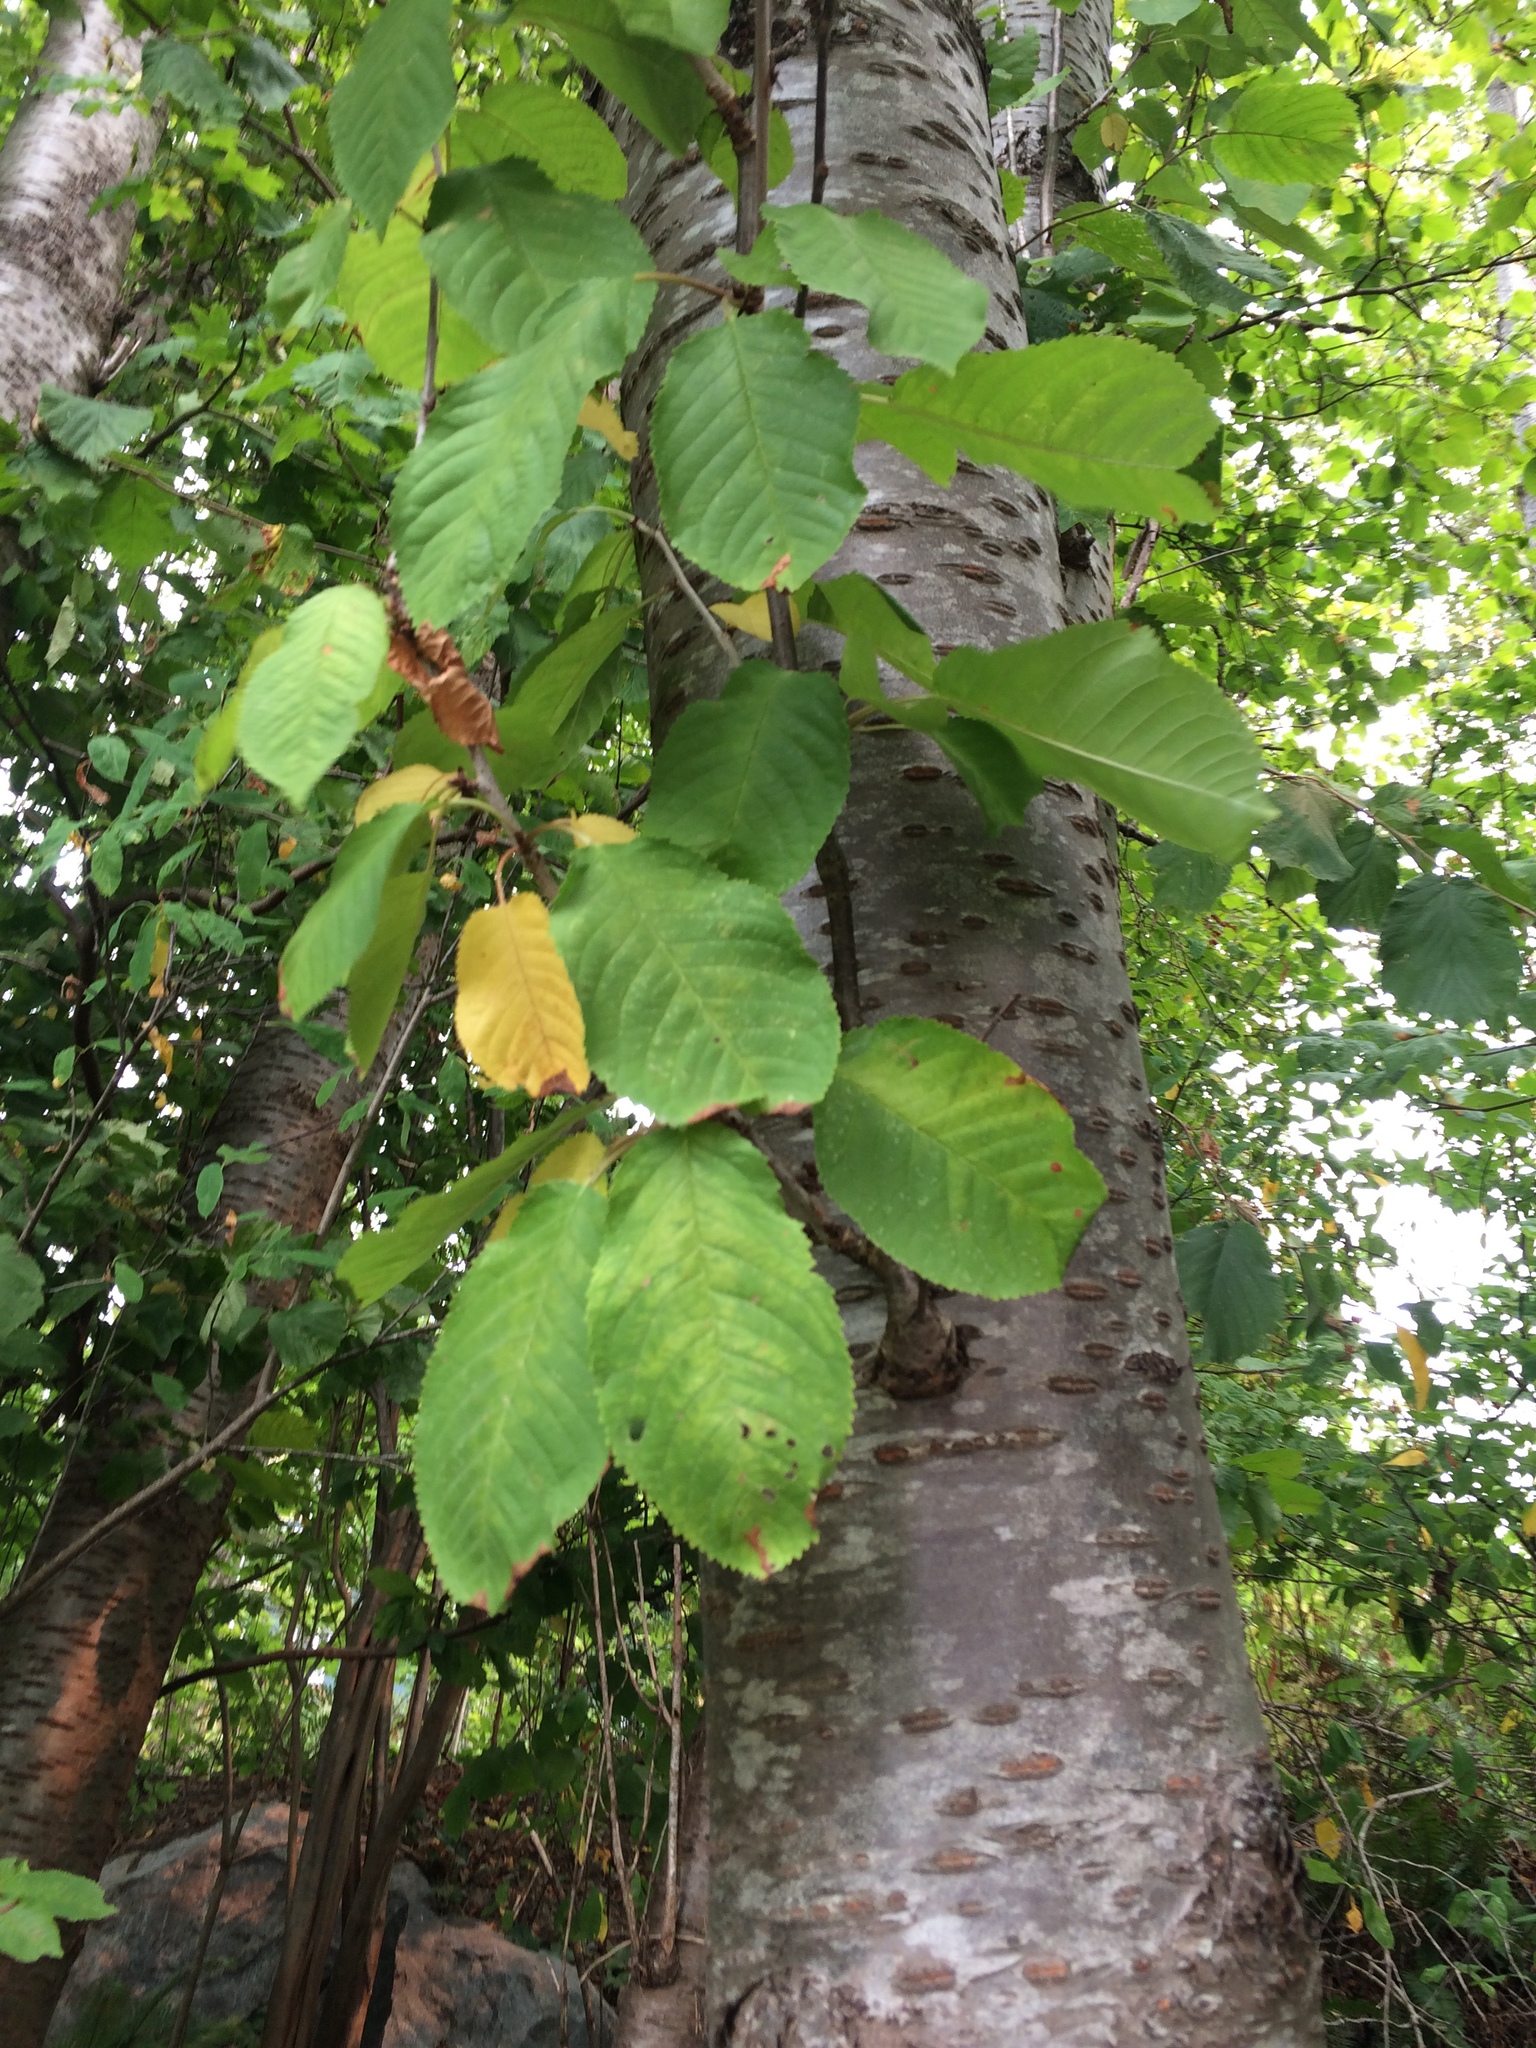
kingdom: Plantae
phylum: Tracheophyta
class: Magnoliopsida
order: Rosales
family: Rhamnaceae
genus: Frangula
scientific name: Frangula purshiana
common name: Cascara buckthorn
